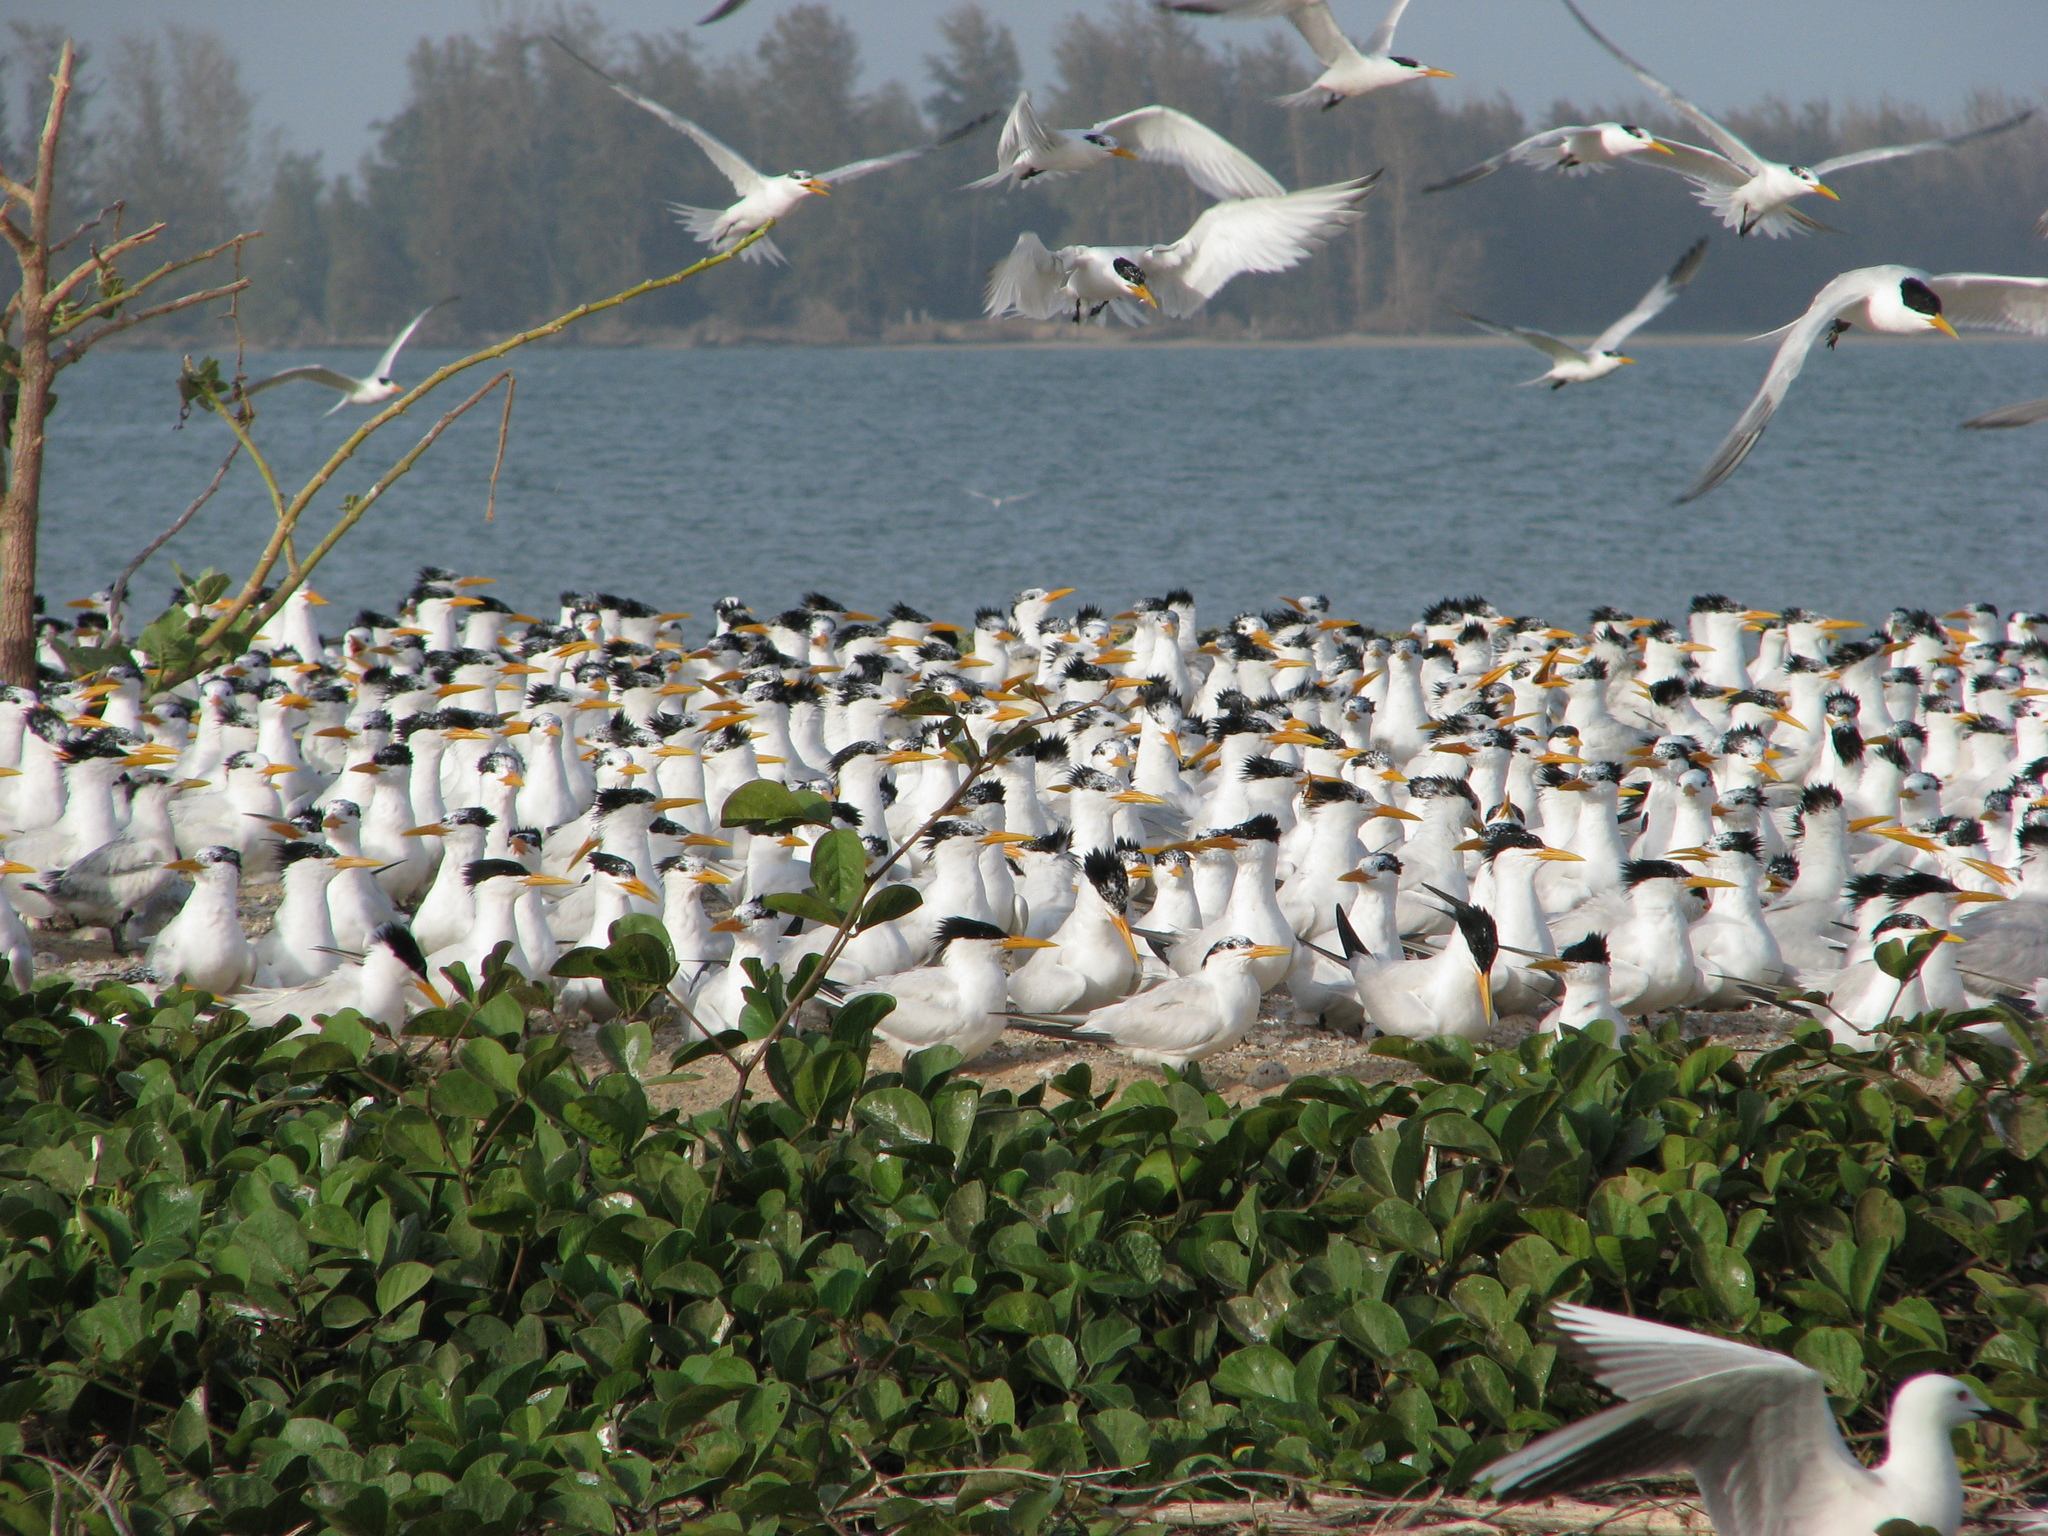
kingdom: Animalia
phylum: Chordata
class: Aves
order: Charadriiformes
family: Laridae
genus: Thalasseus
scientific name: Thalasseus albididorsalis
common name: West african crested tern
